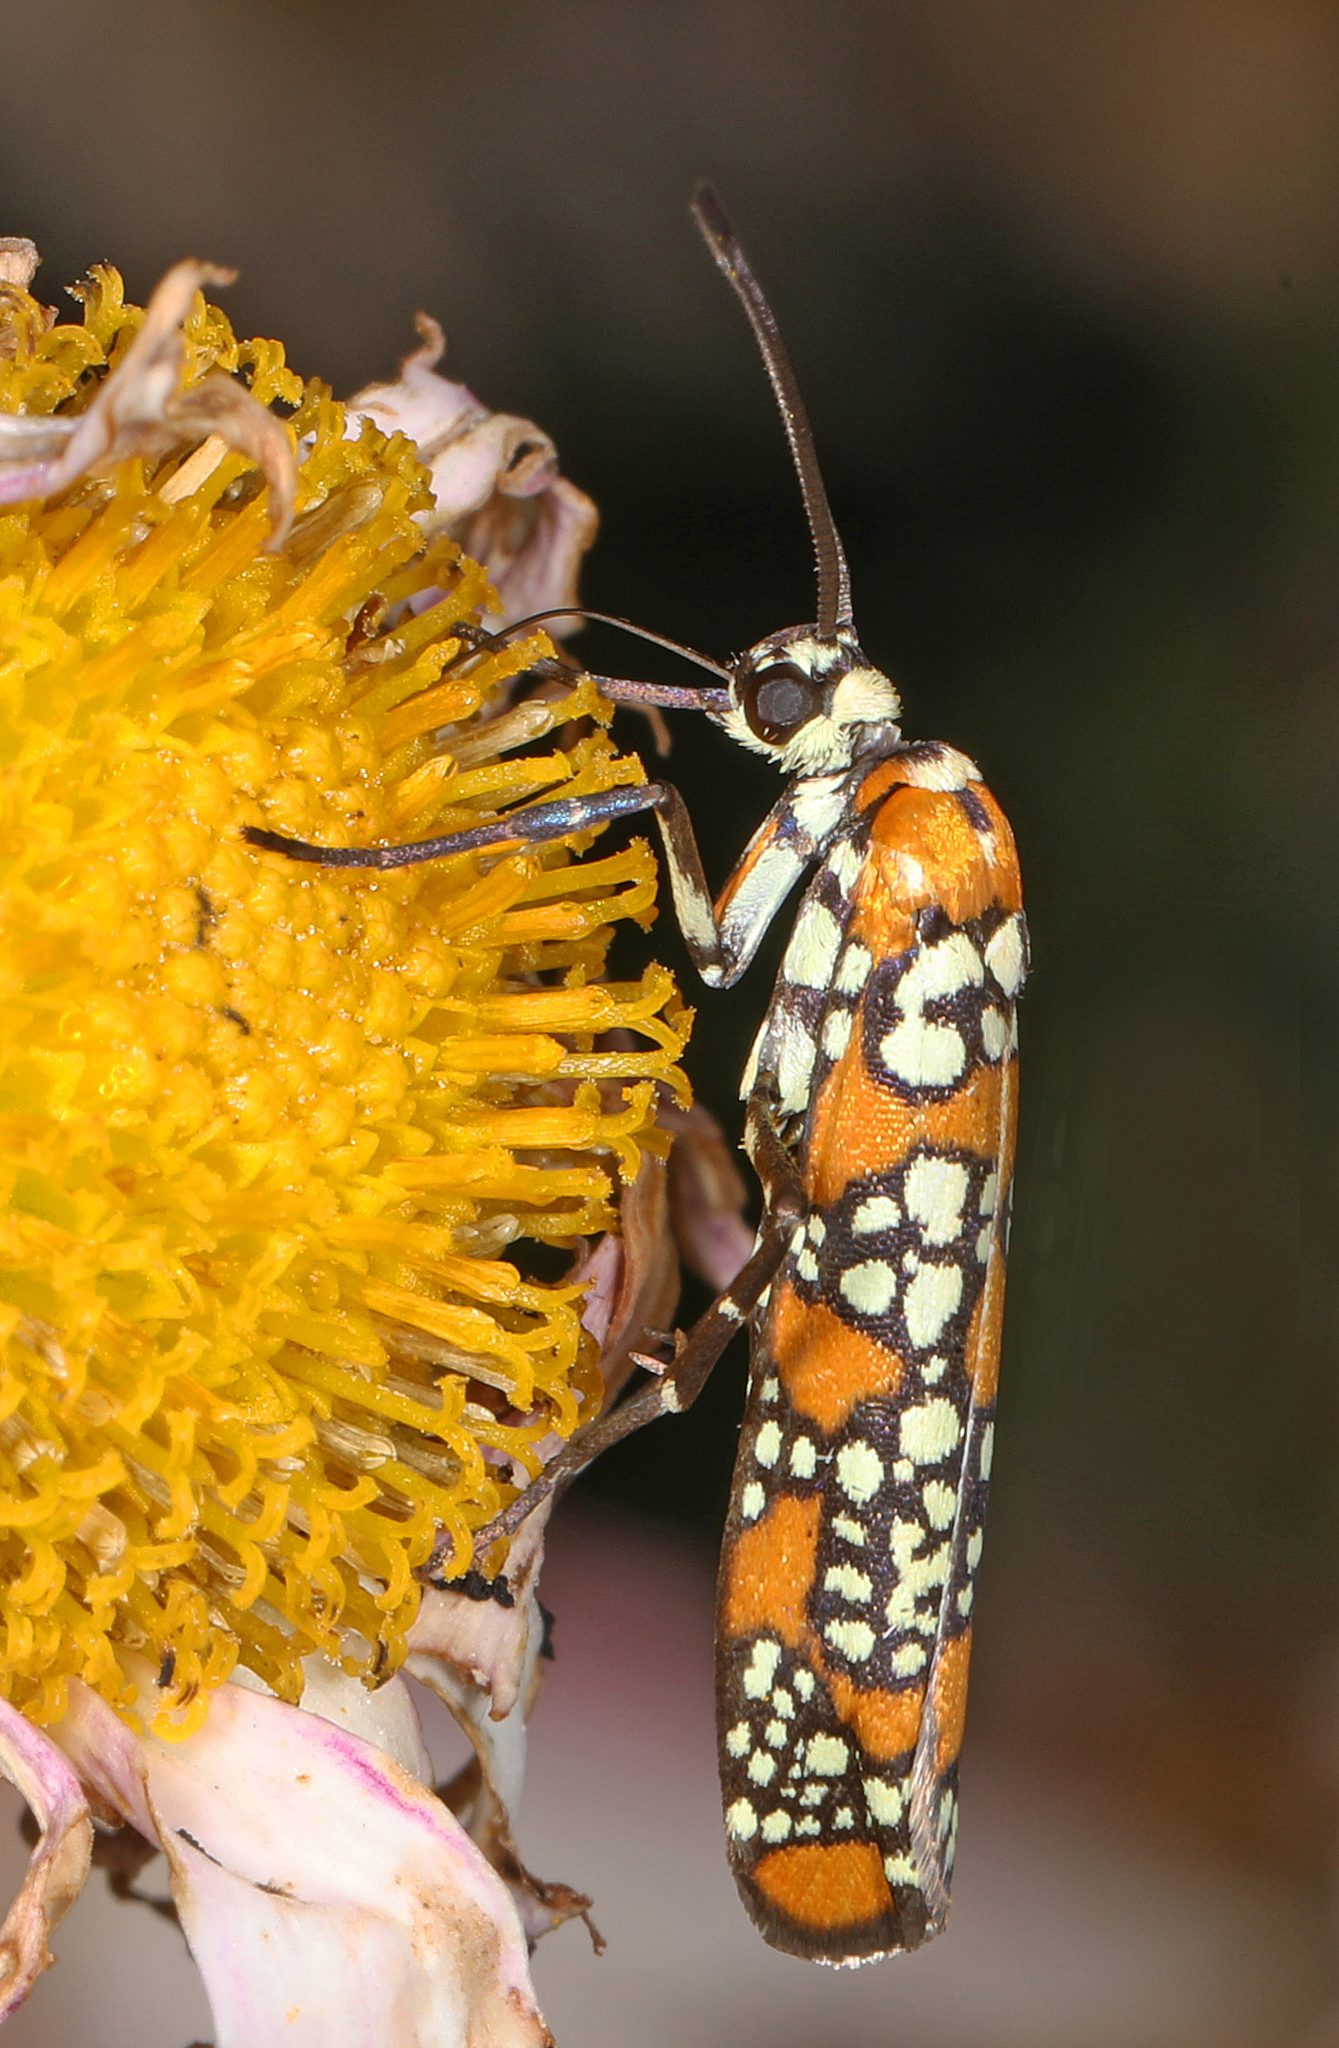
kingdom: Animalia
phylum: Arthropoda
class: Insecta
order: Lepidoptera
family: Attevidae
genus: Atteva
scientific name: Atteva punctella
